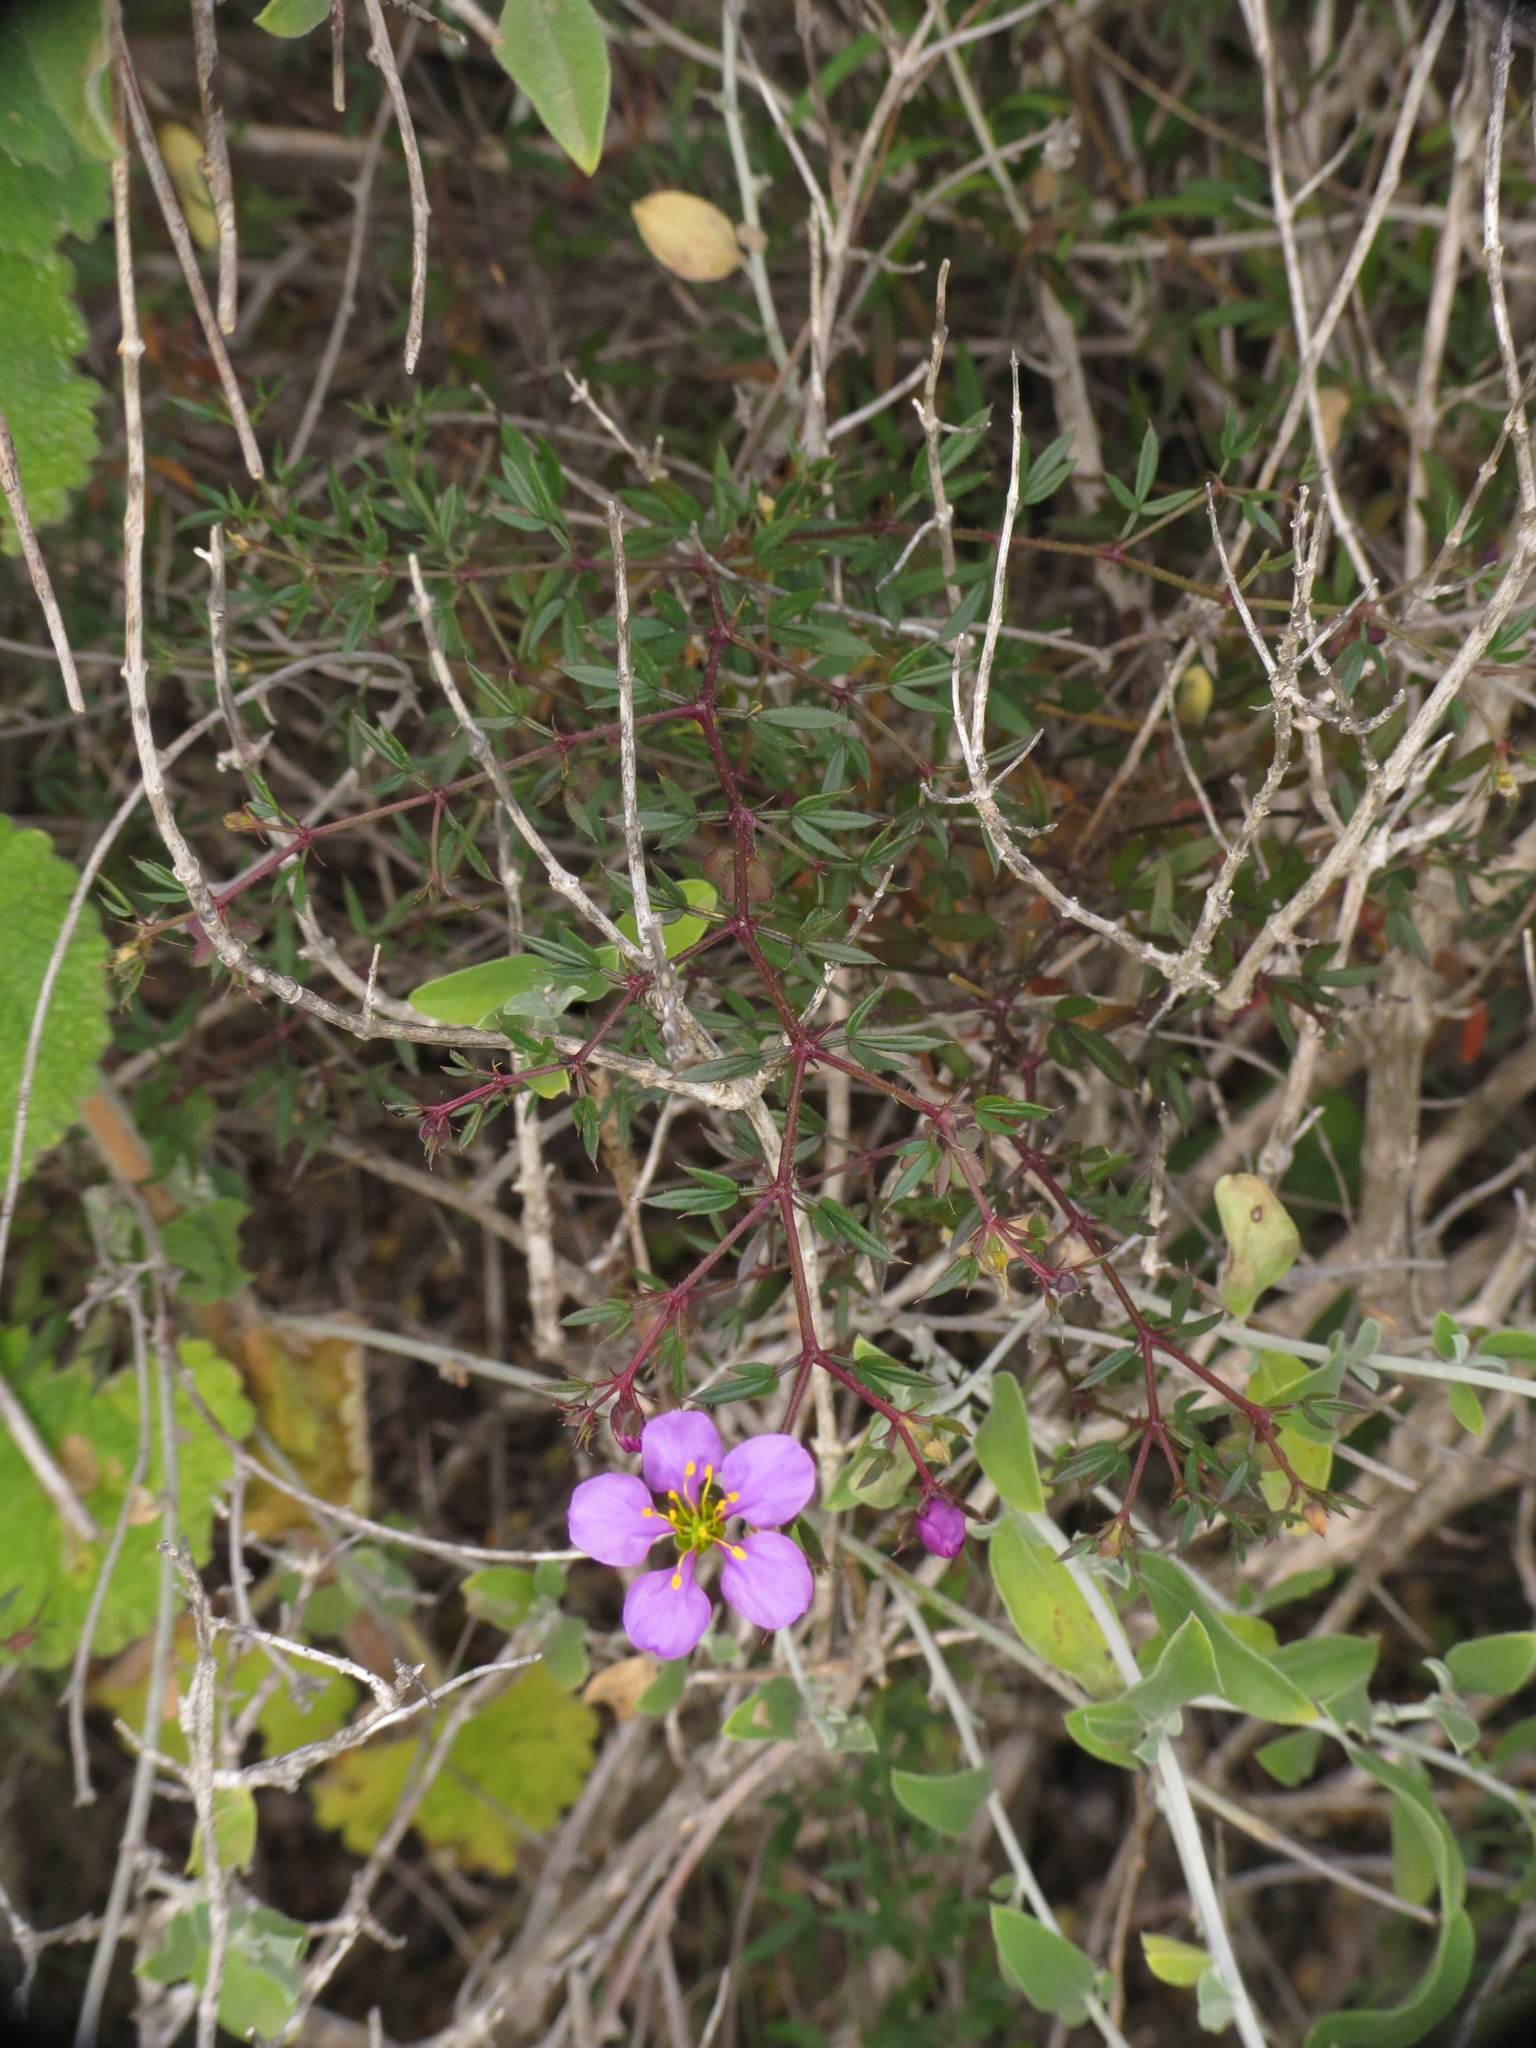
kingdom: Plantae
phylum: Tracheophyta
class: Magnoliopsida
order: Zygophyllales
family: Zygophyllaceae
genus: Fagonia
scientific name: Fagonia cretica
